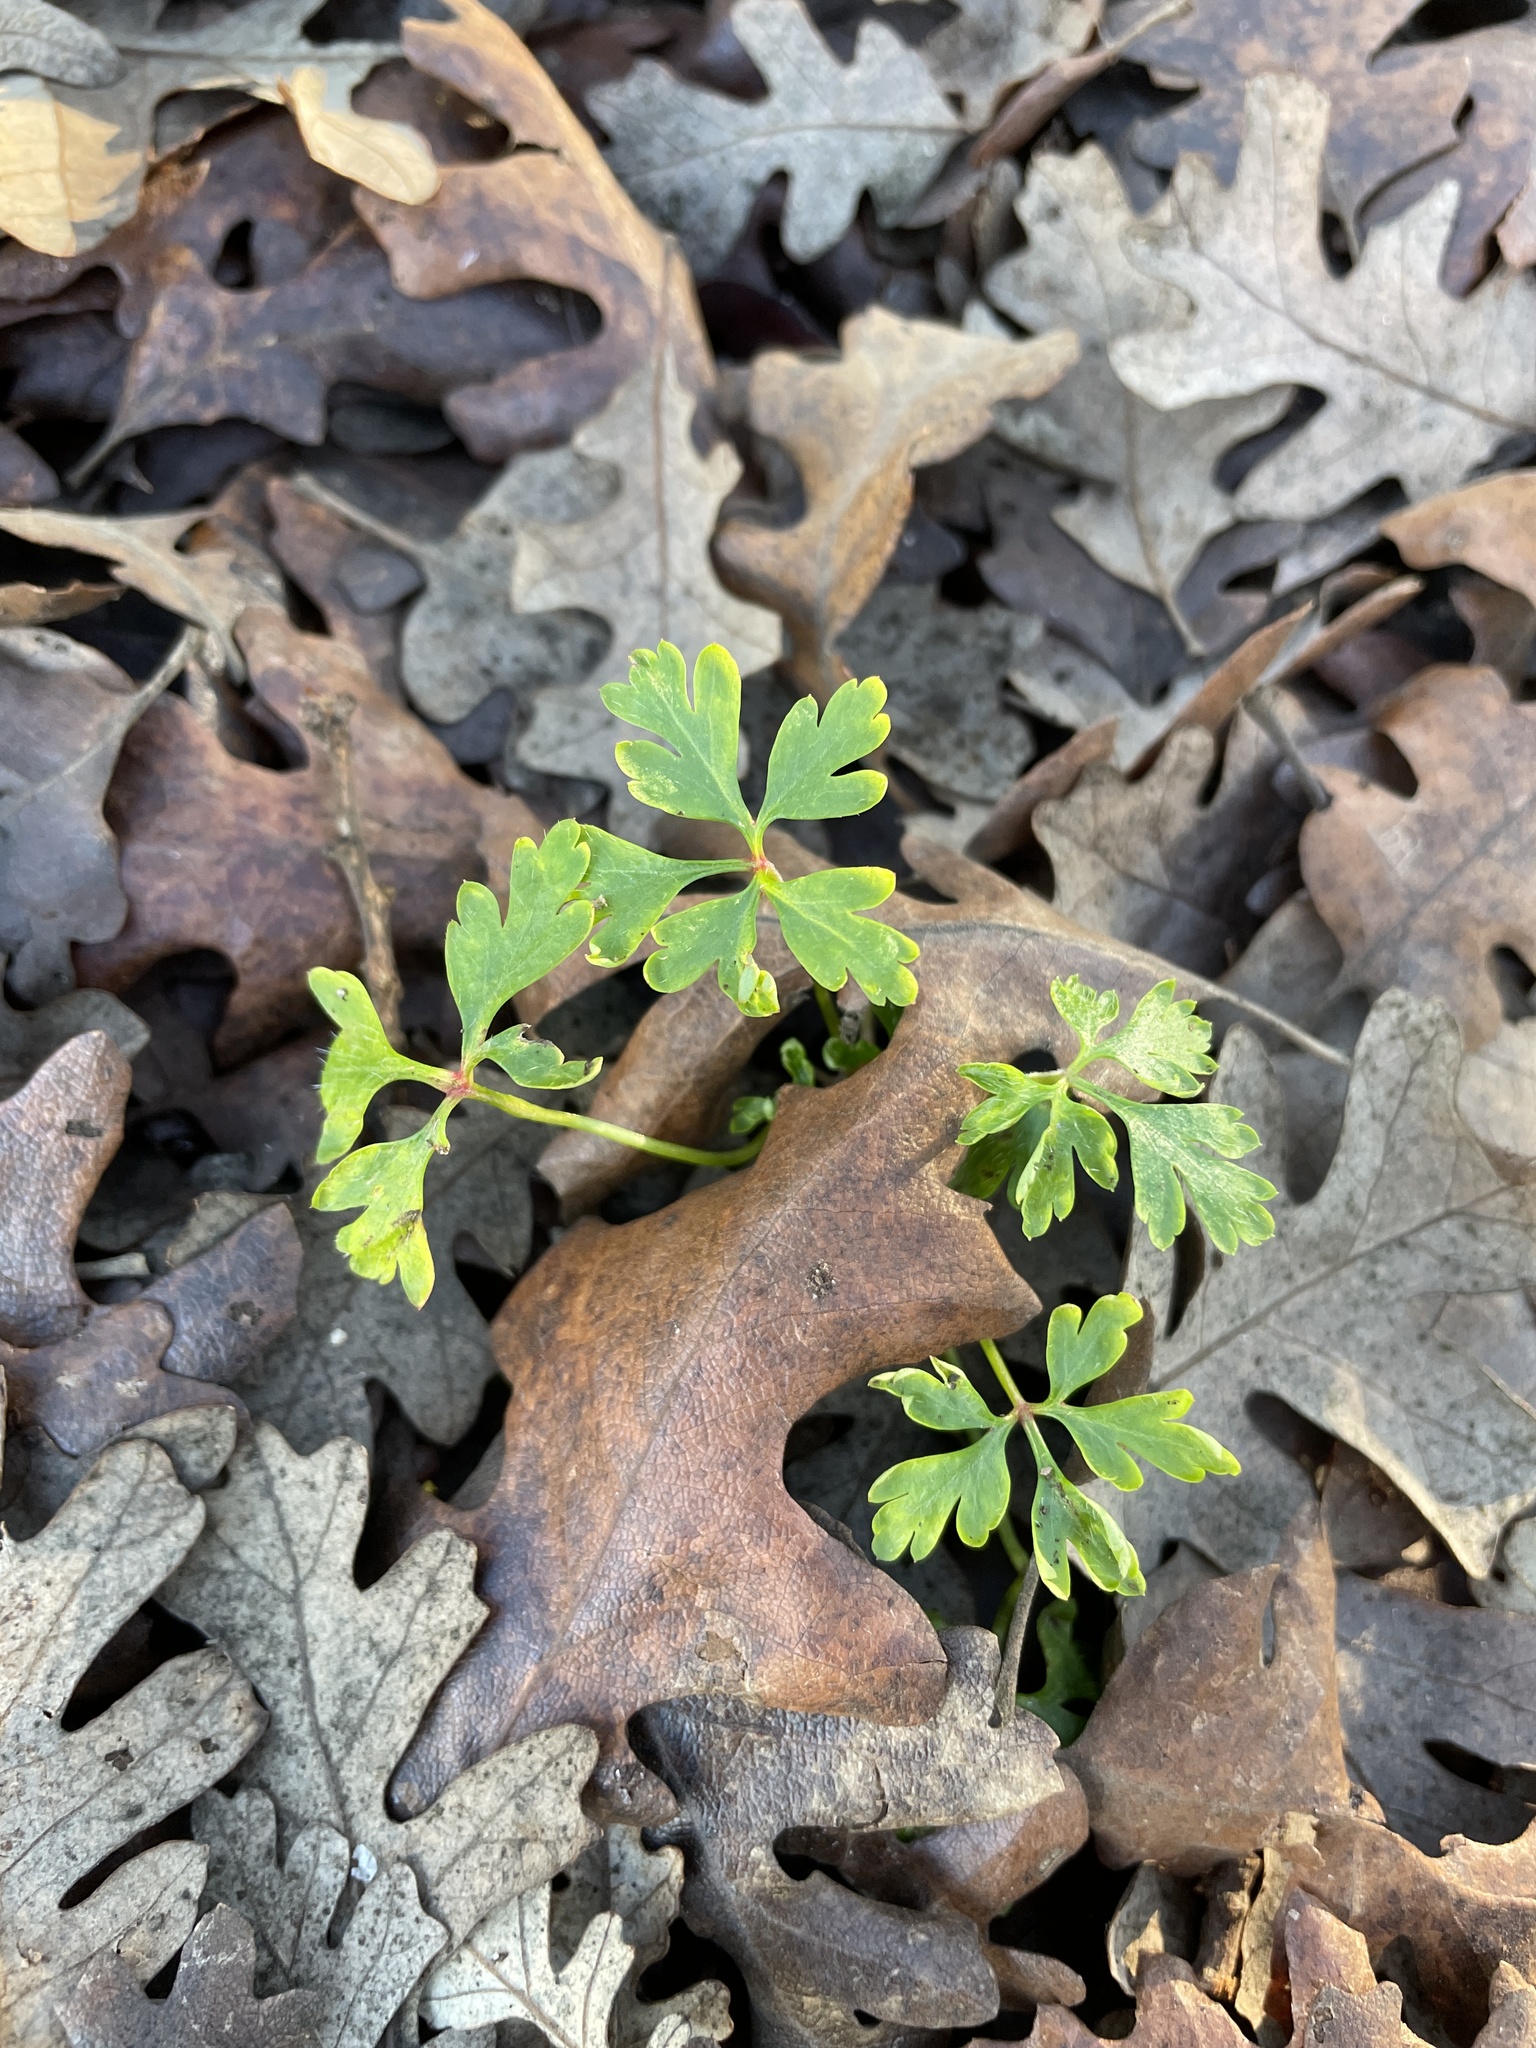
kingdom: Plantae
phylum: Tracheophyta
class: Magnoliopsida
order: Geraniales
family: Geraniaceae
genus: Geranium
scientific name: Geranium
